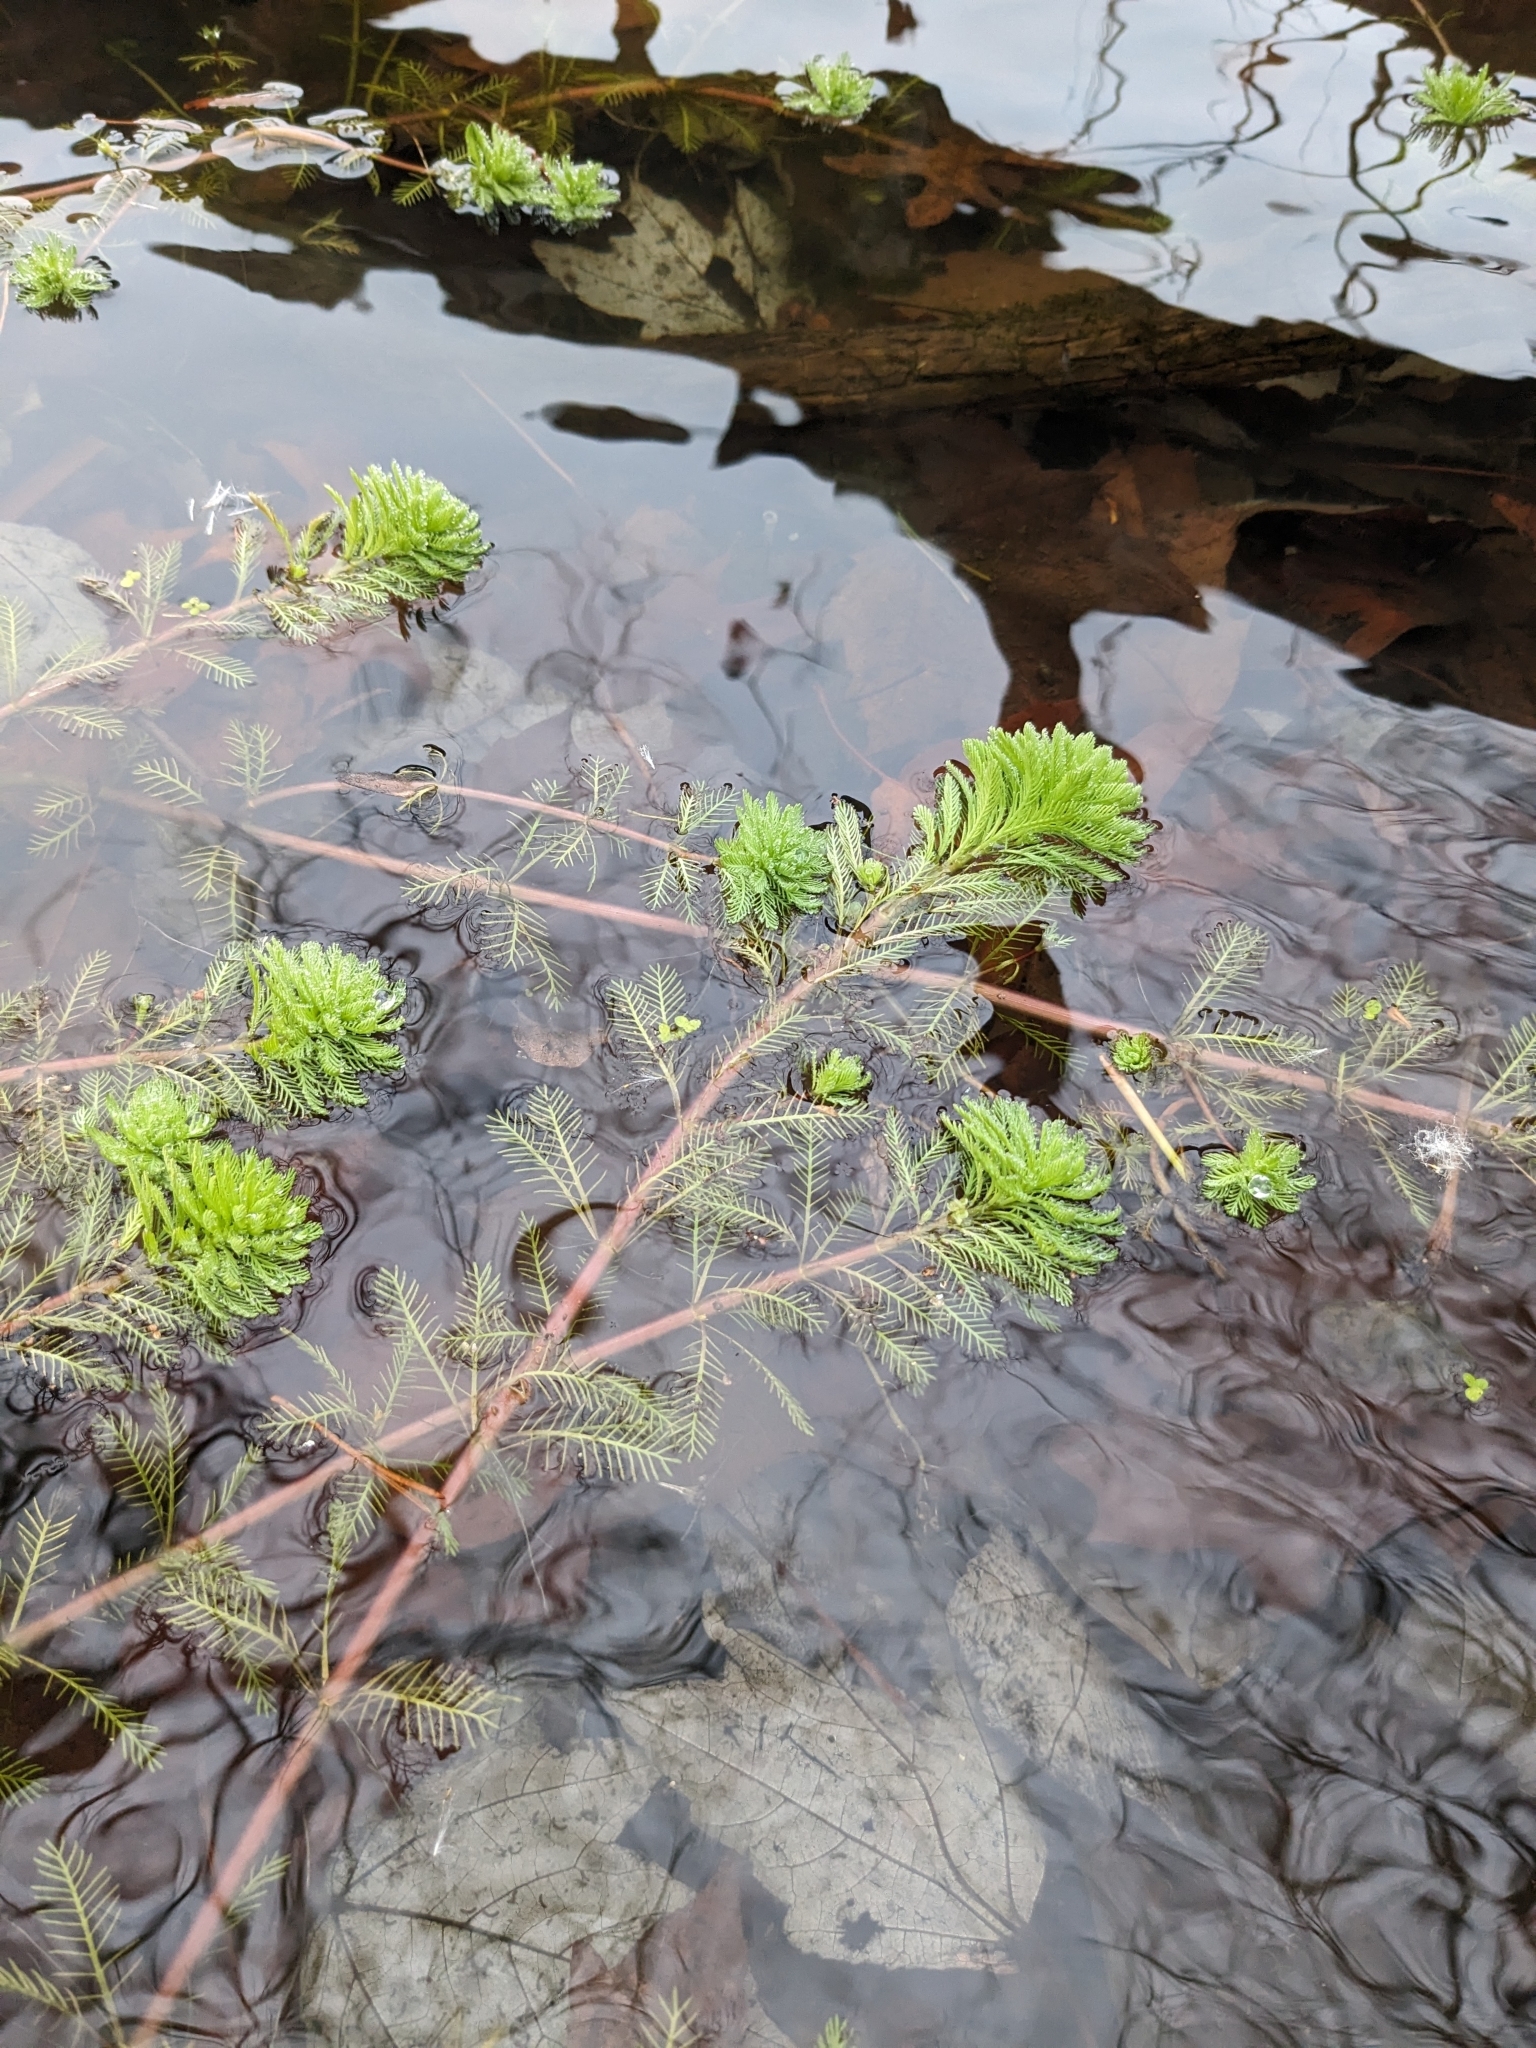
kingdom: Plantae
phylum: Tracheophyta
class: Magnoliopsida
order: Saxifragales
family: Haloragaceae
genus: Myriophyllum
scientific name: Myriophyllum aquaticum
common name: Parrot's feather
